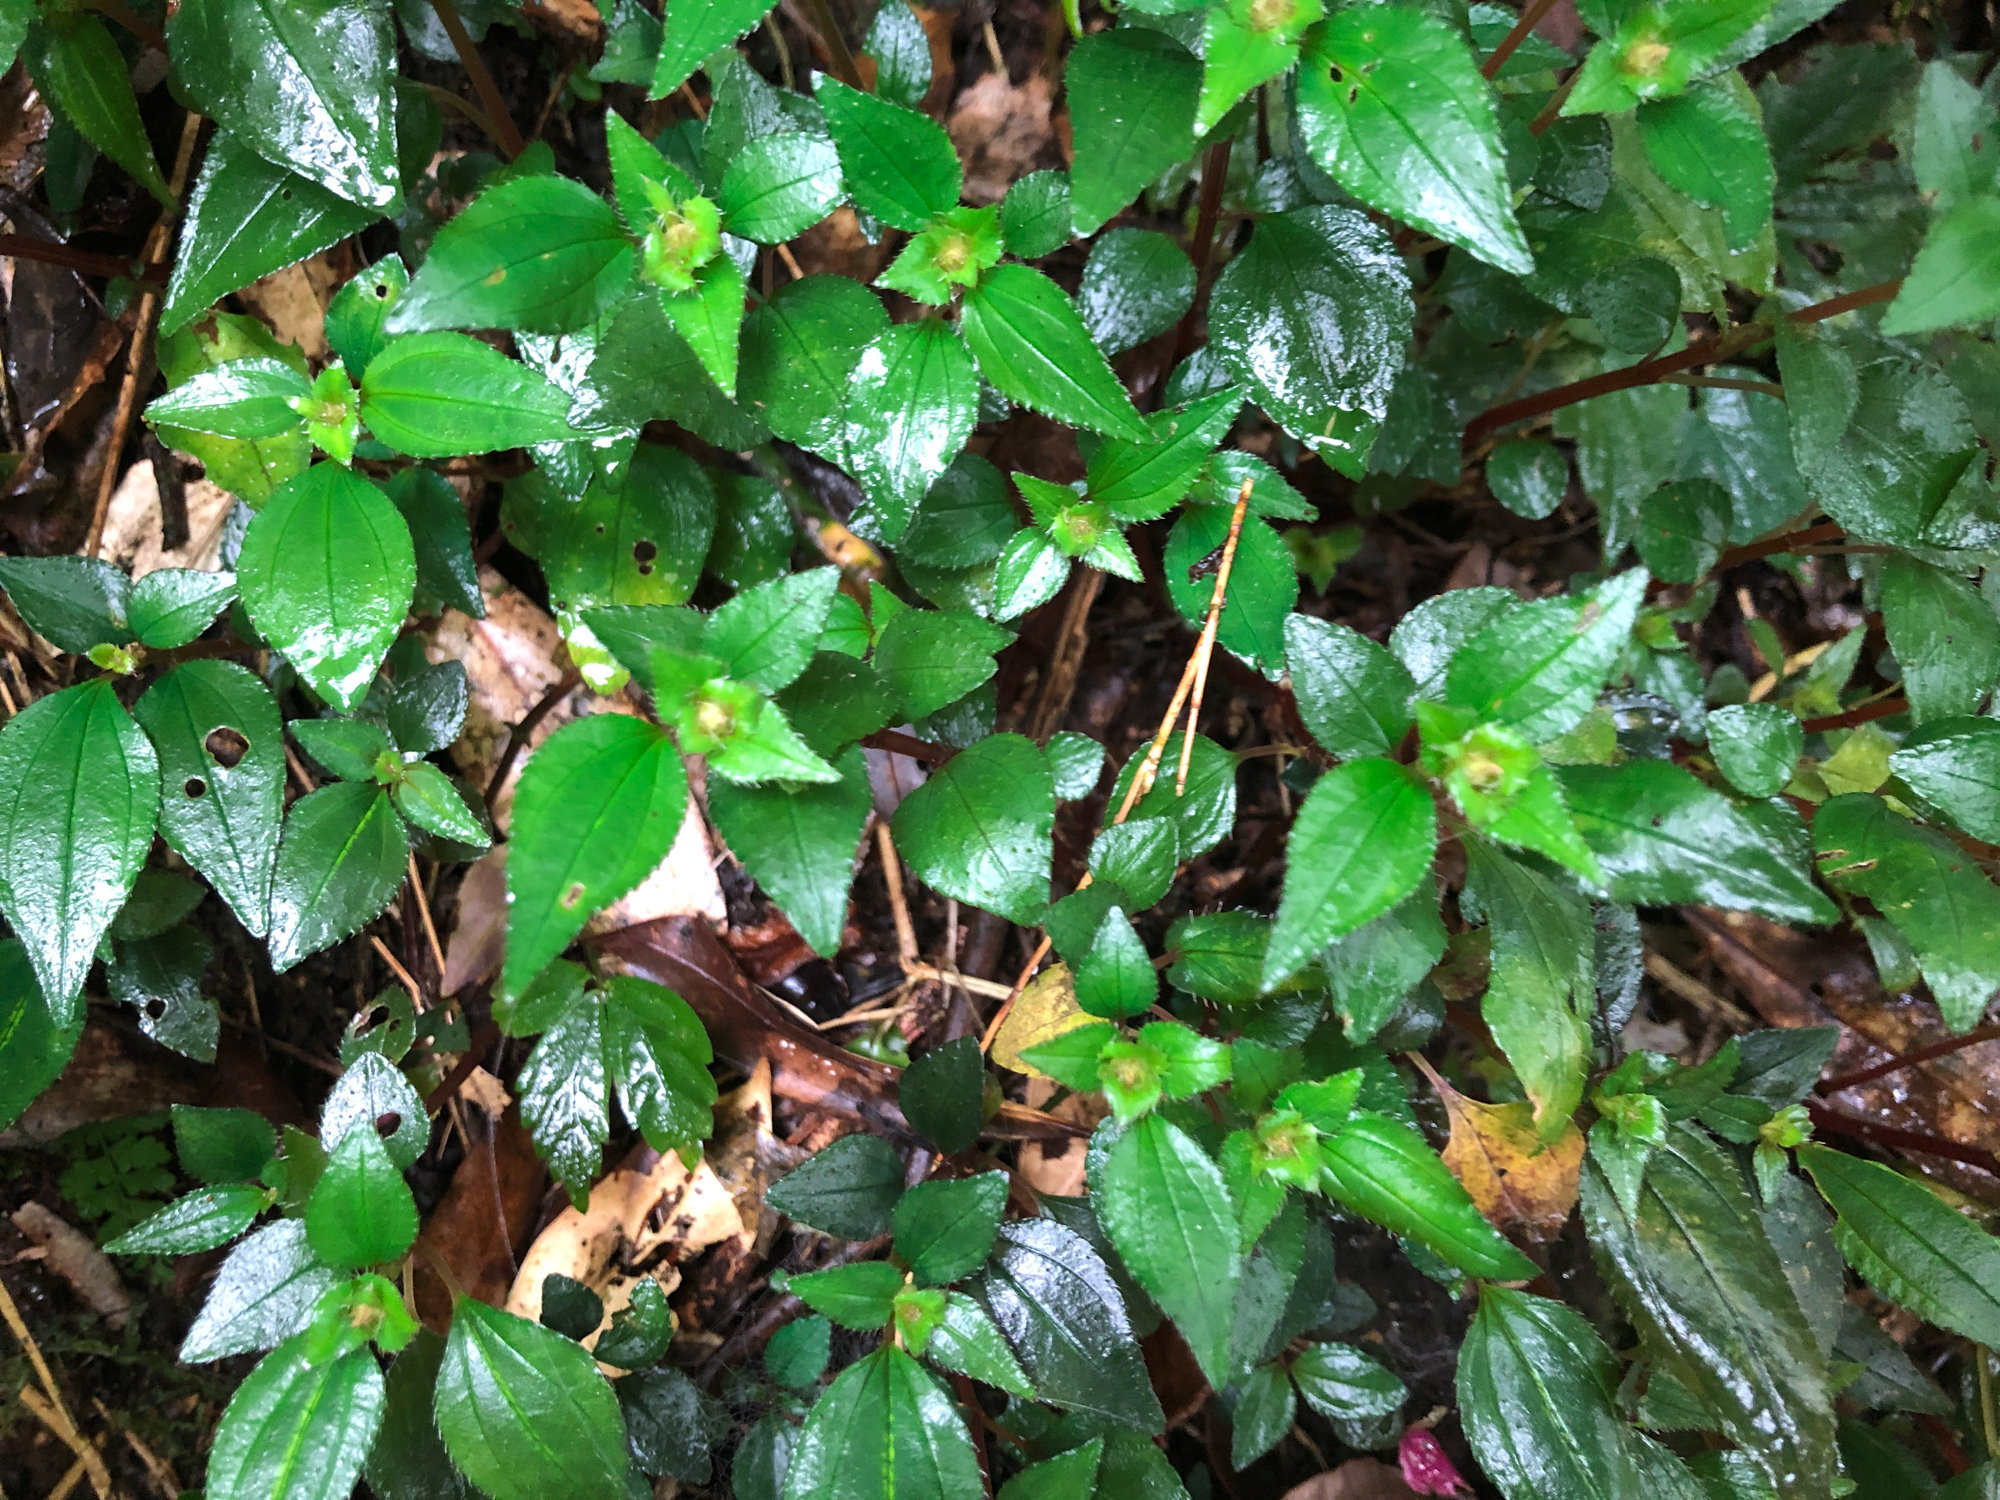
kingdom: Plantae
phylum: Tracheophyta
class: Magnoliopsida
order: Myrtales
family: Melastomataceae
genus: Sarcopyramis
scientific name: Sarcopyramis bodinieri
